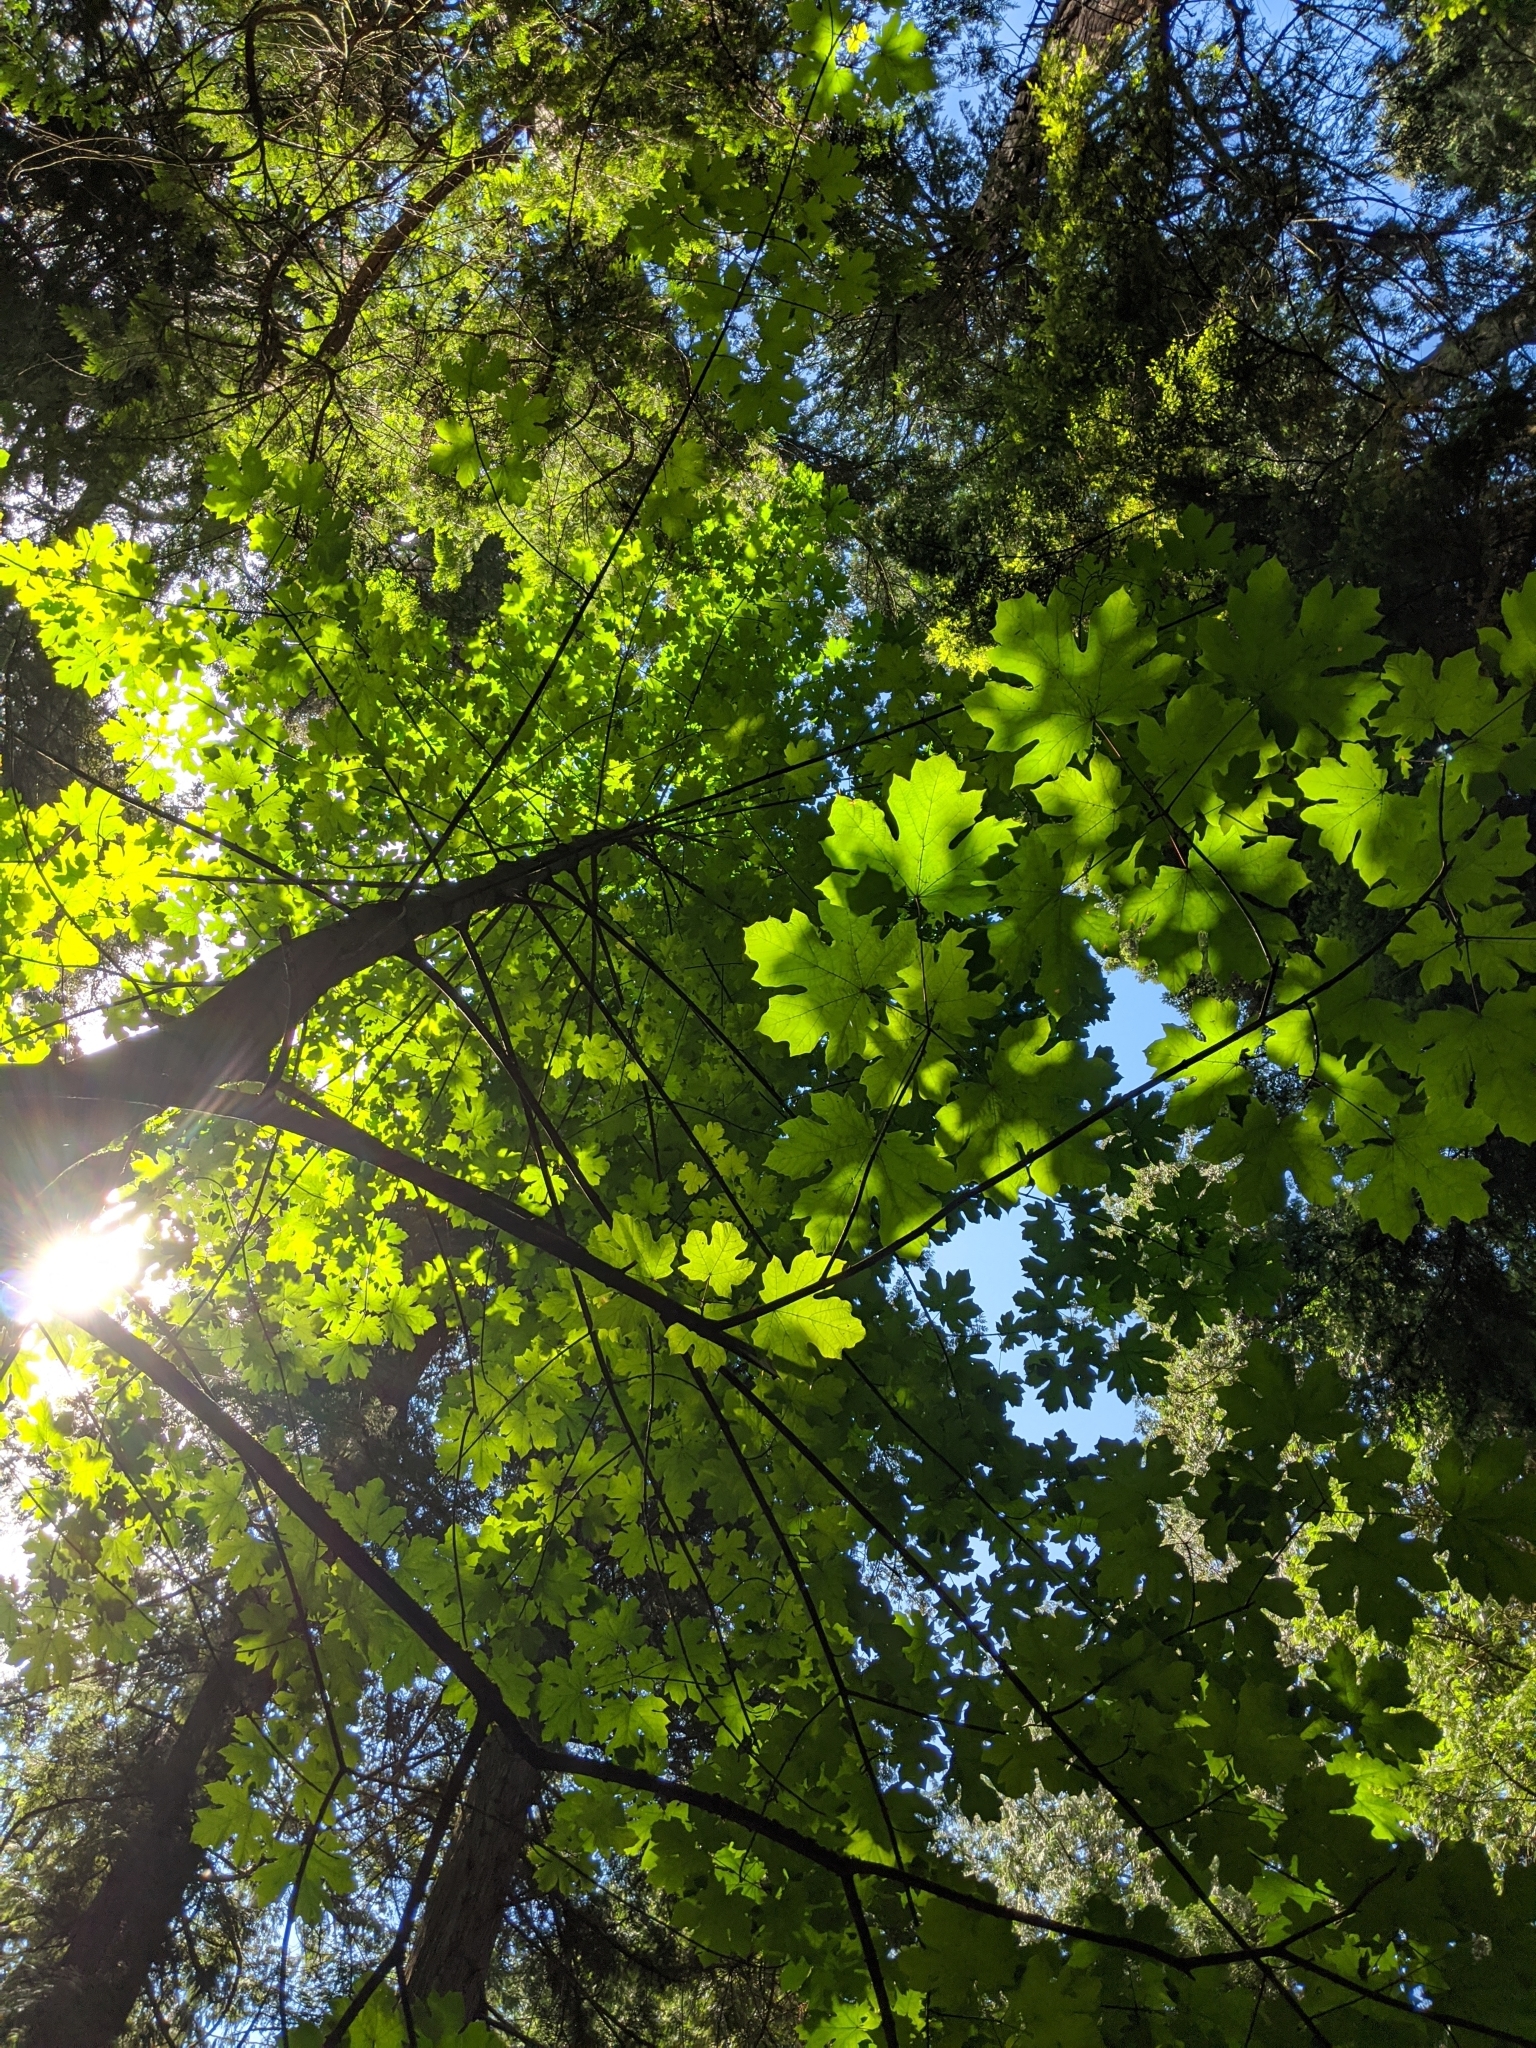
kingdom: Plantae
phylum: Tracheophyta
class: Magnoliopsida
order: Sapindales
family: Sapindaceae
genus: Acer
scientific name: Acer macrophyllum
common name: Oregon maple
